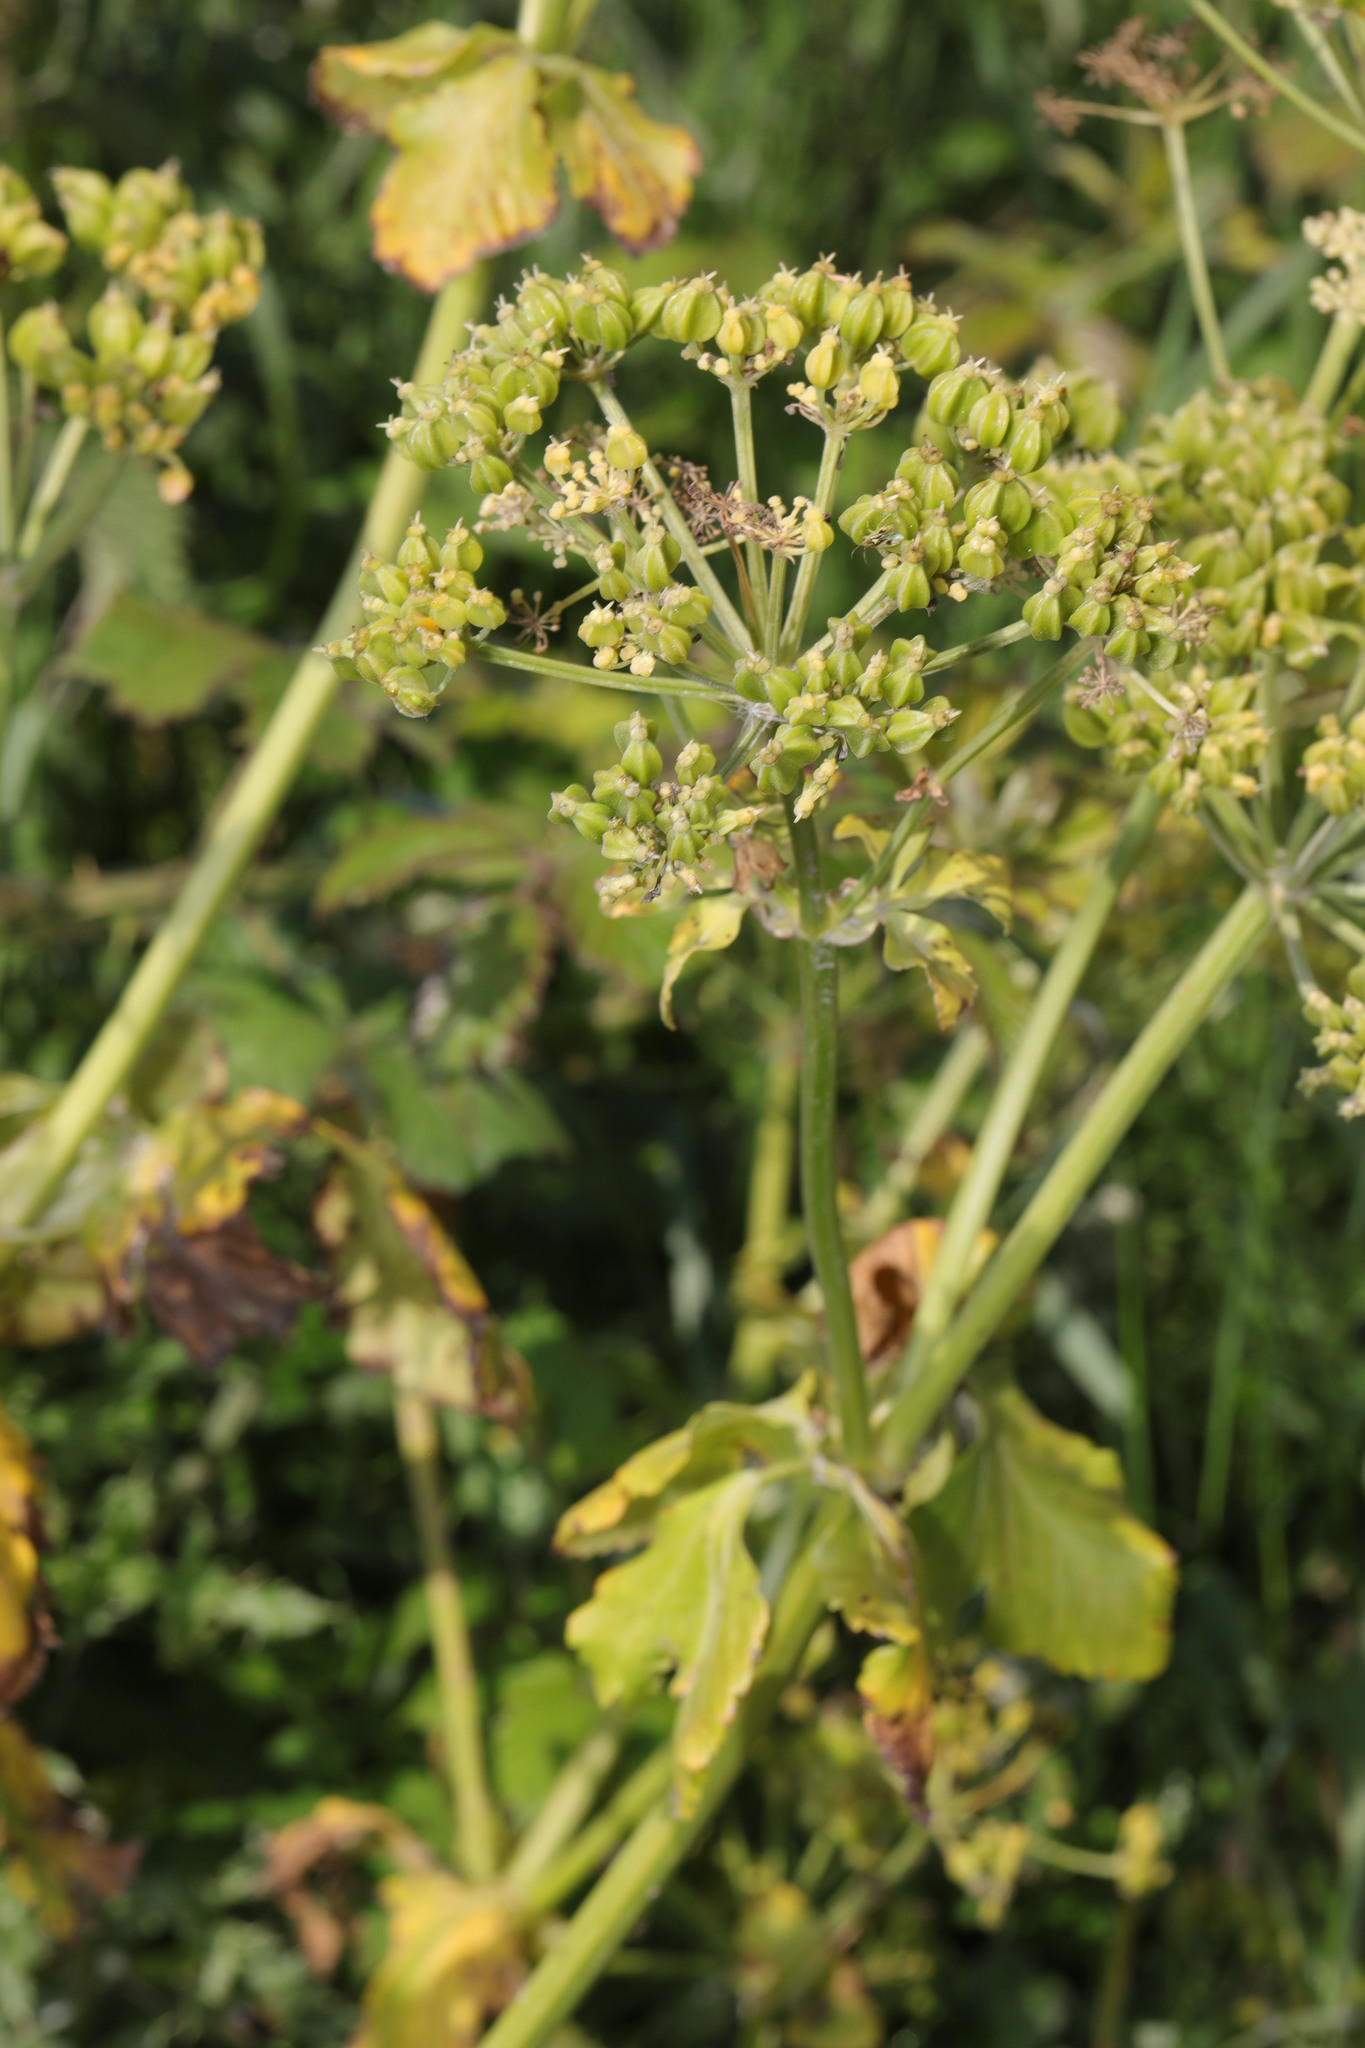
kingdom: Plantae
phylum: Tracheophyta
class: Magnoliopsida
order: Apiales
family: Apiaceae
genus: Smyrnium
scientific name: Smyrnium olusatrum
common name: Alexanders
